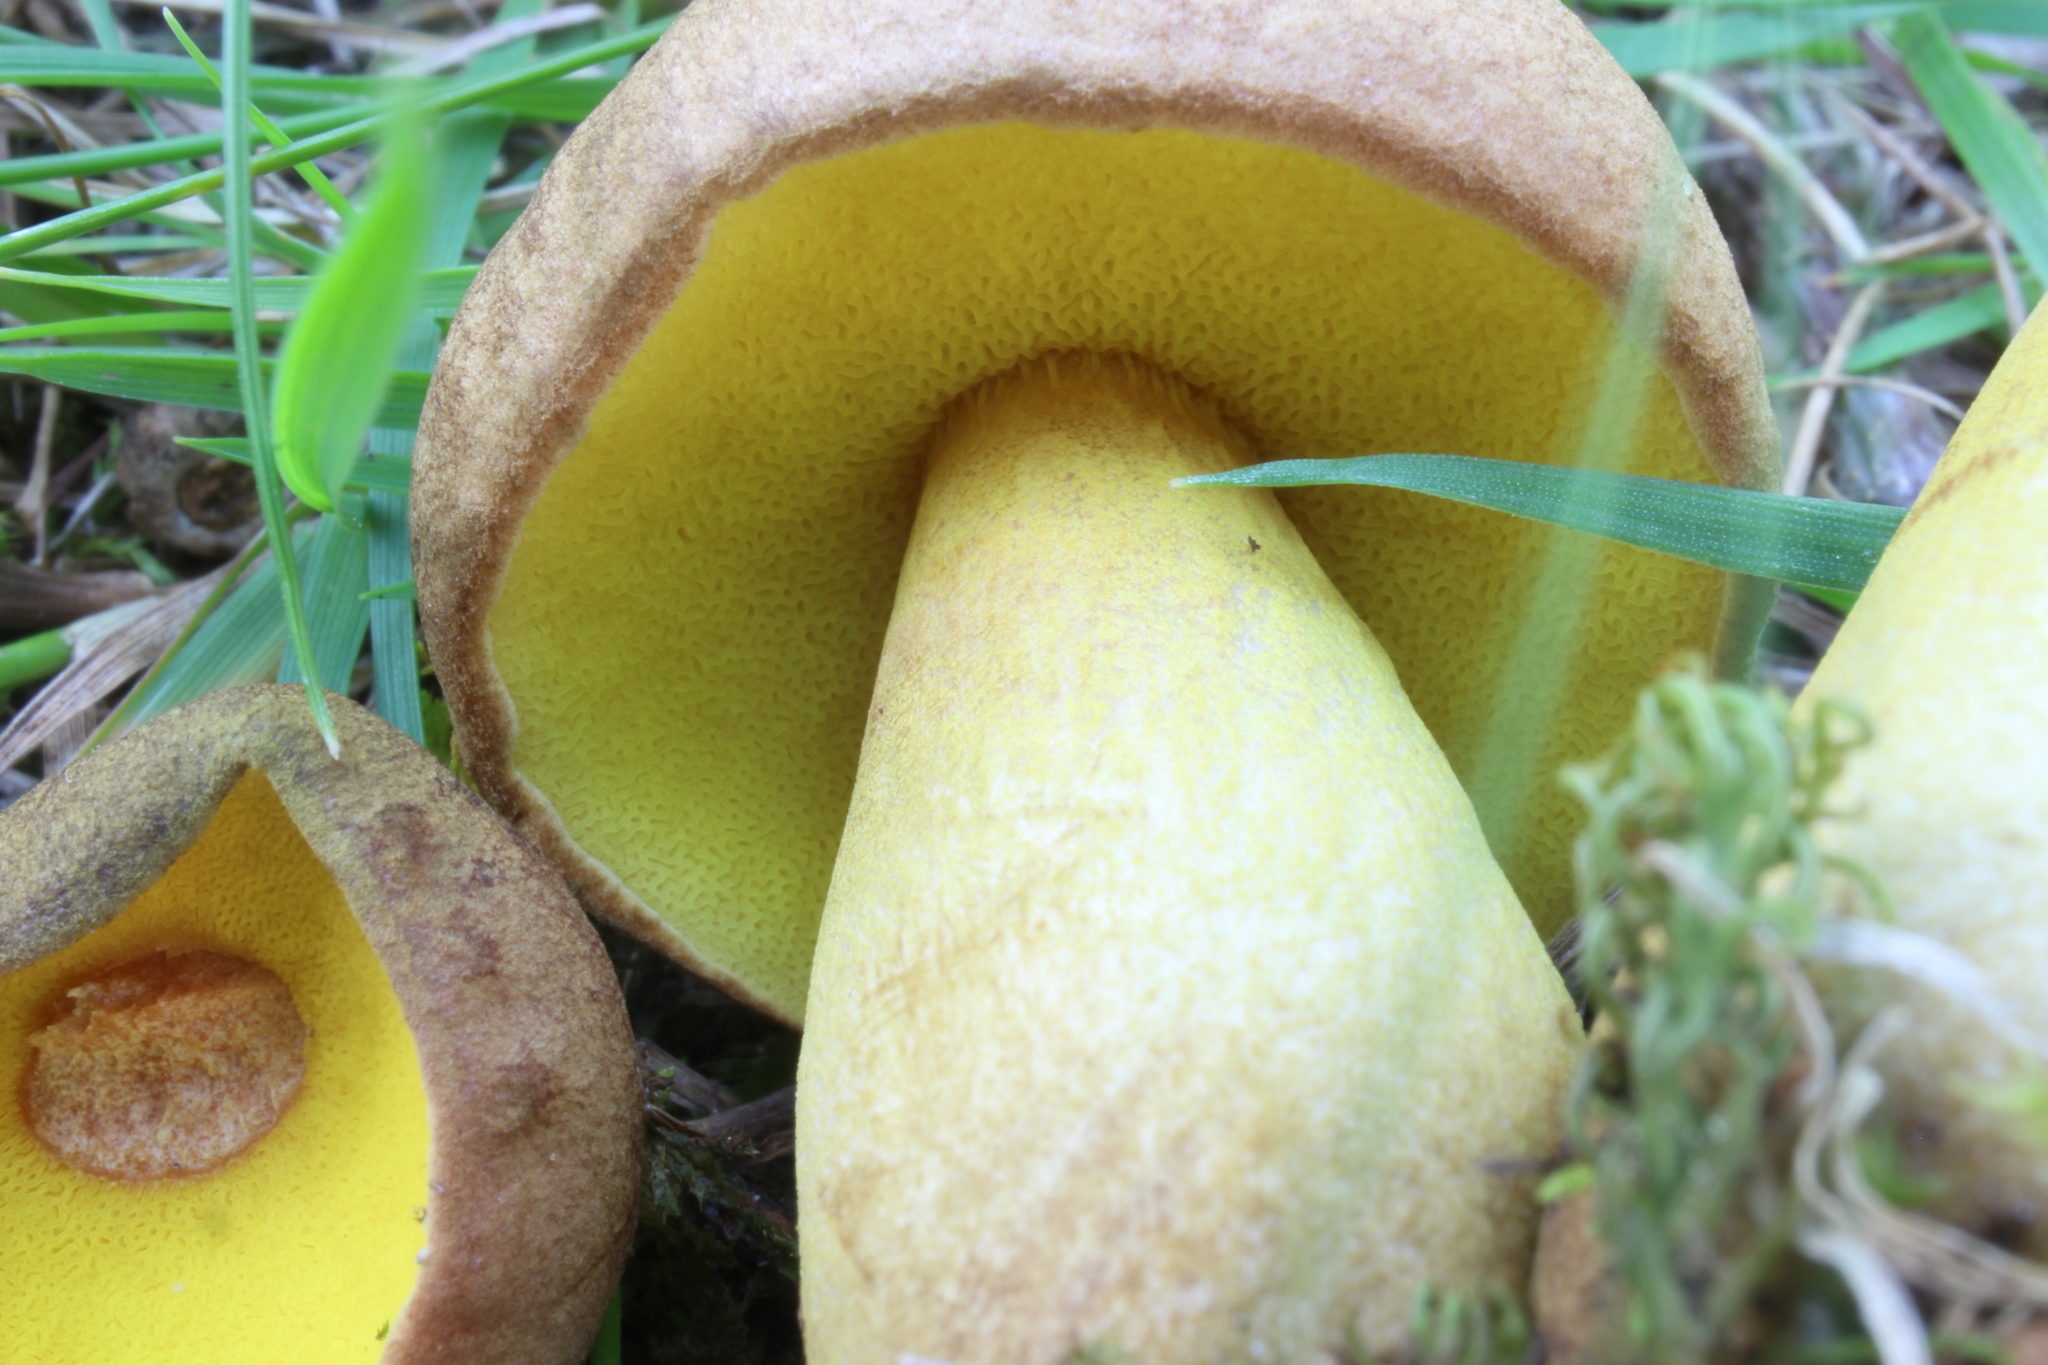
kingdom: Fungi
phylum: Basidiomycota
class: Agaricomycetes
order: Boletales
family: Boletaceae
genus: Aureoboletus
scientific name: Aureoboletus innixus
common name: Clustered brown bolete
